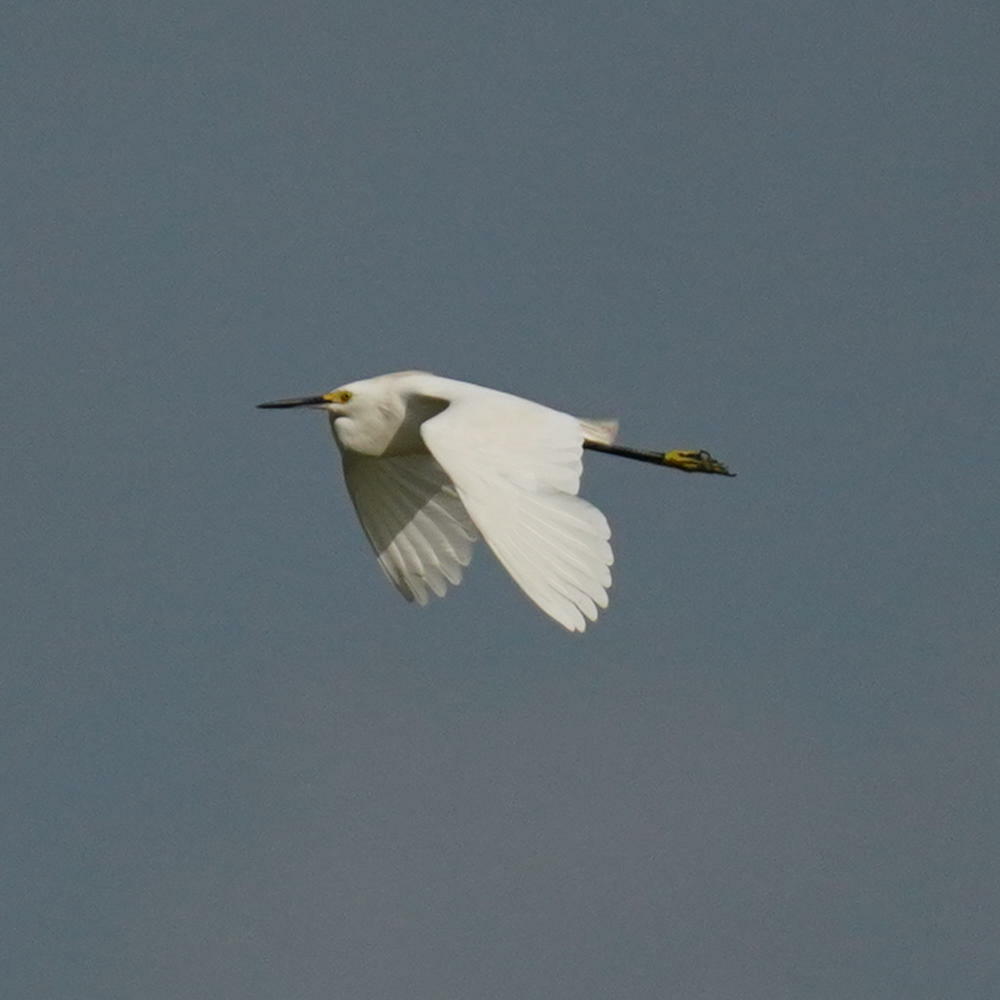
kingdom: Animalia
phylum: Chordata
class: Aves
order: Pelecaniformes
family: Ardeidae
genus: Egretta
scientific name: Egretta thula
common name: Snowy egret
